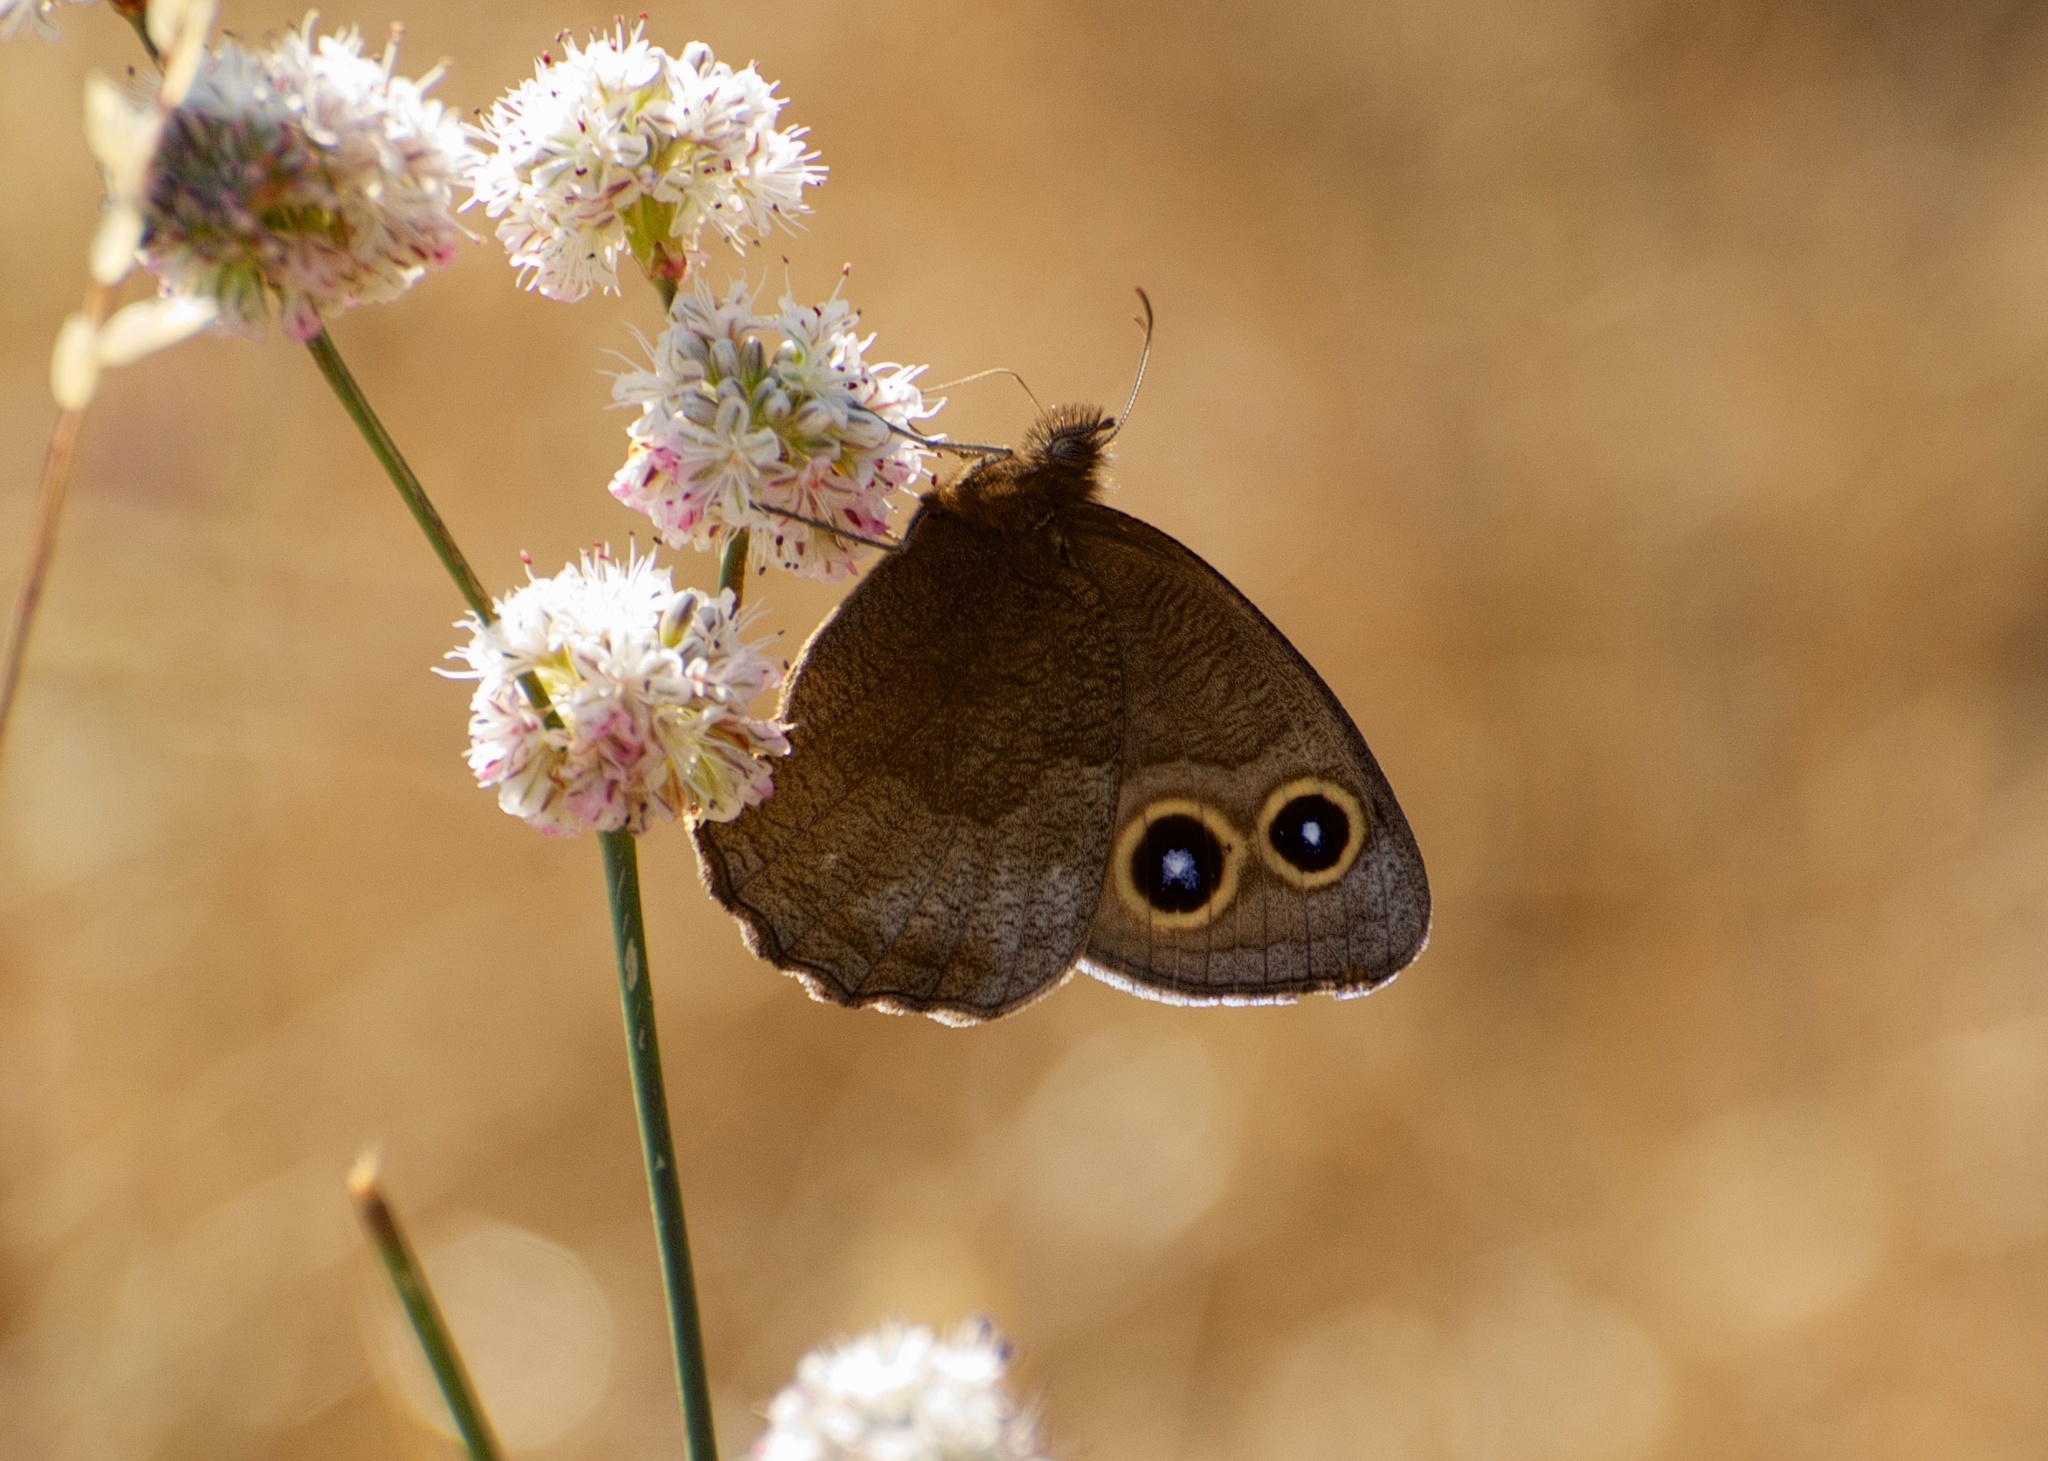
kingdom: Animalia
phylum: Arthropoda
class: Insecta
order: Lepidoptera
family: Nymphalidae
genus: Cercyonis
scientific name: Cercyonis pegala
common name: Common wood-nymph
